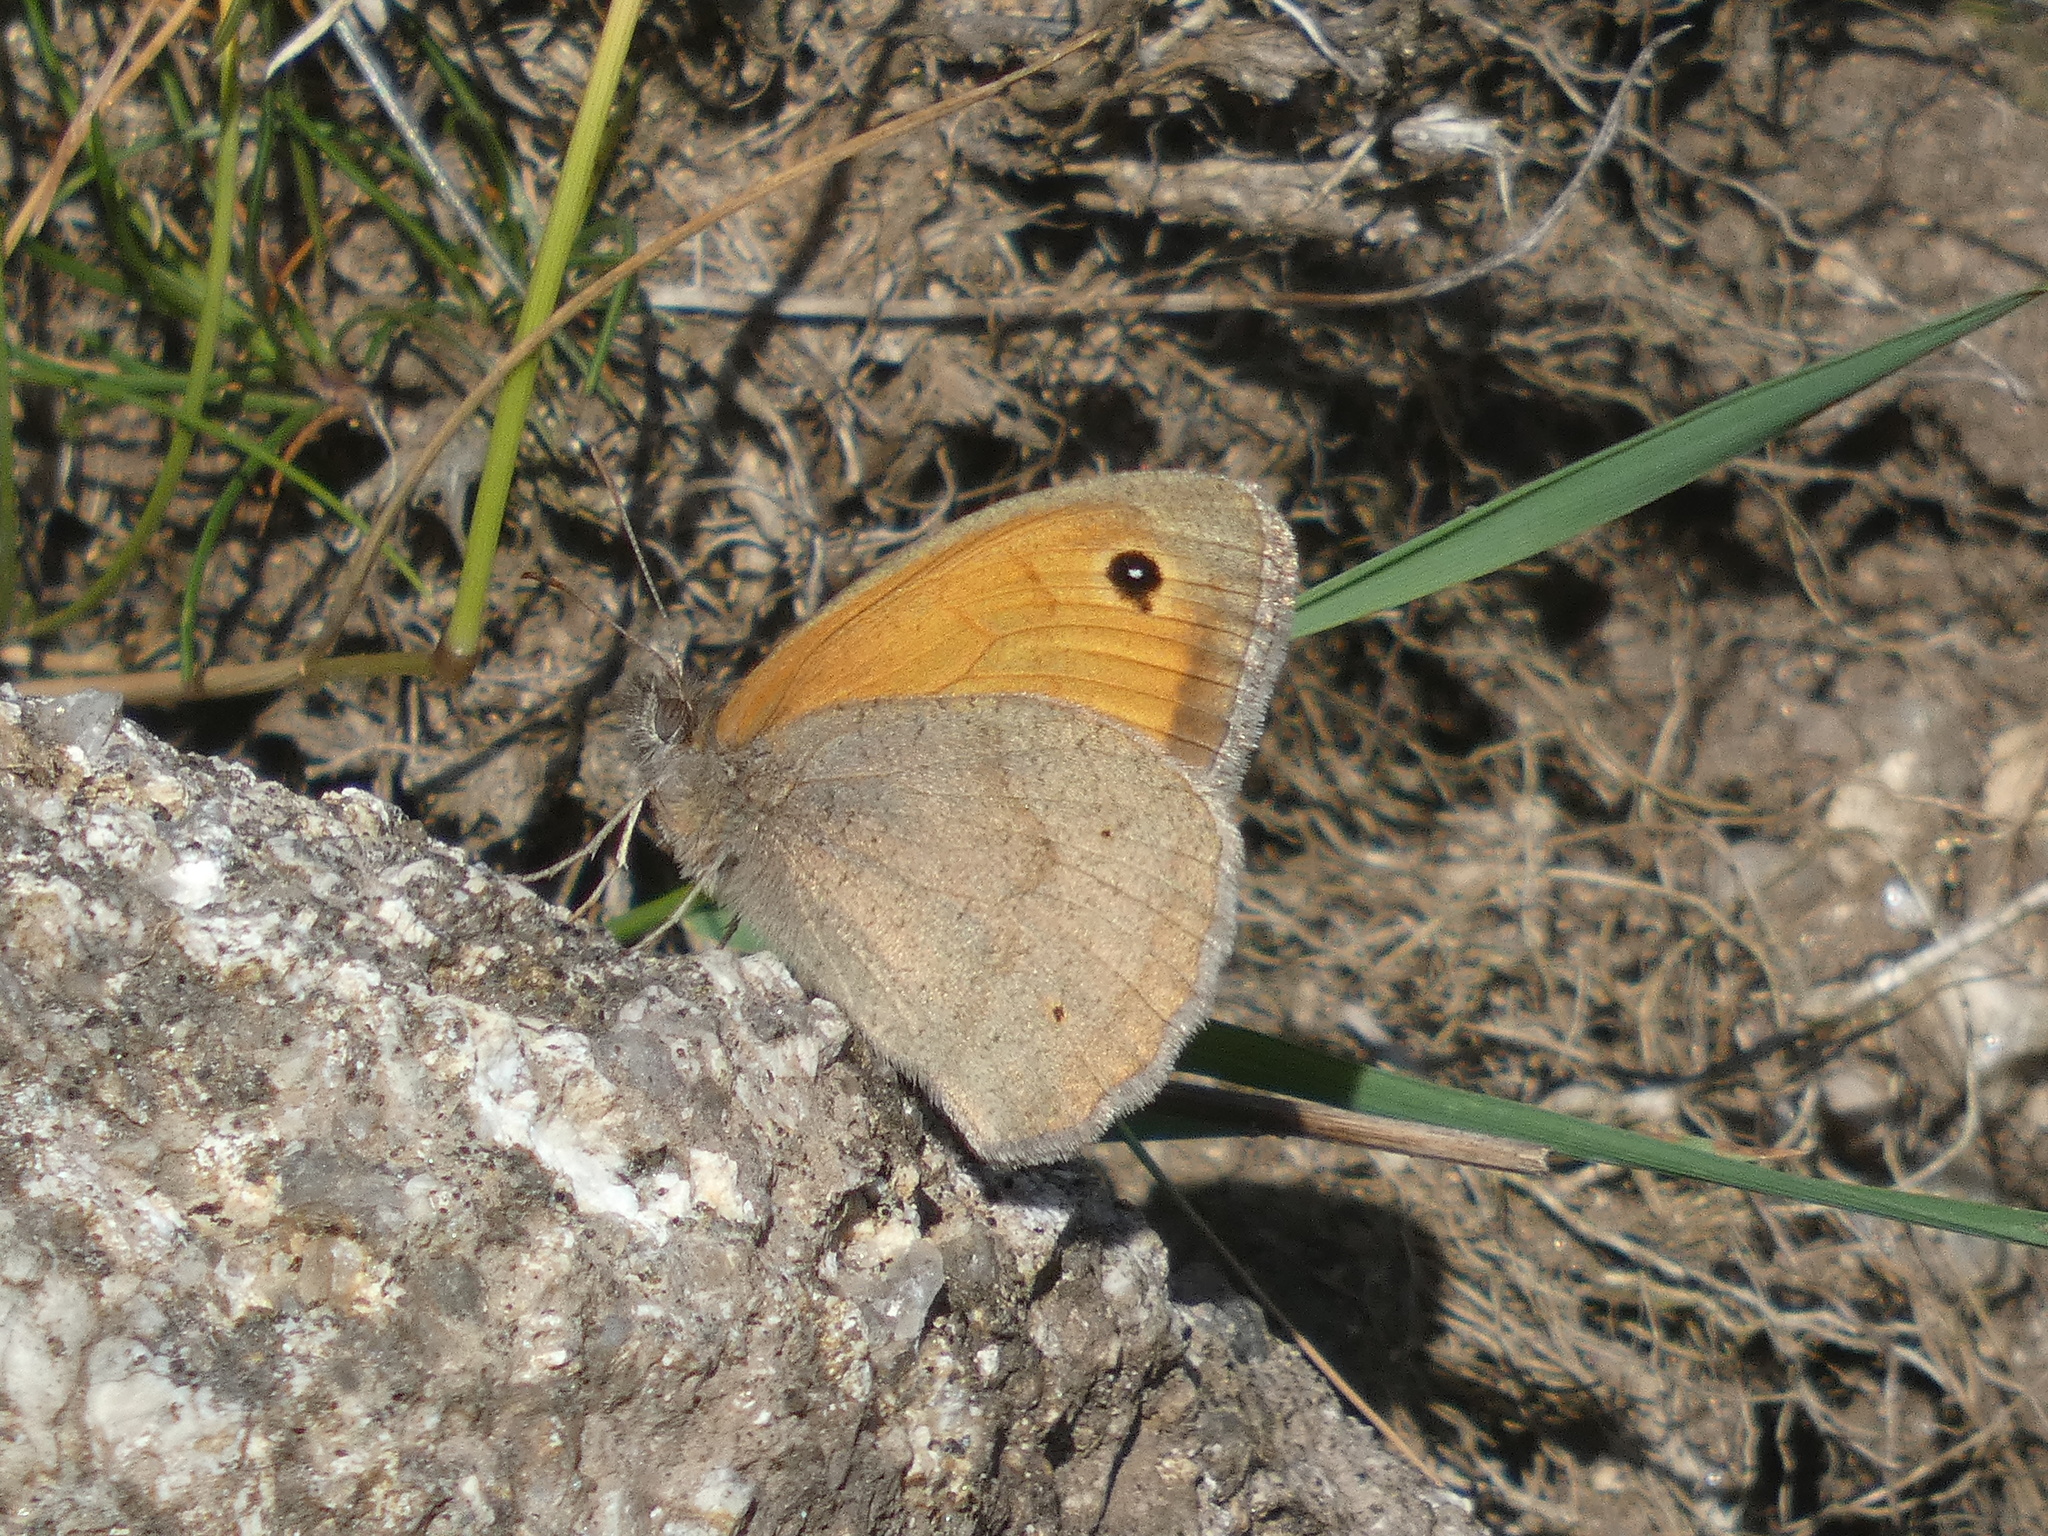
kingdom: Animalia
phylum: Arthropoda
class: Insecta
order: Lepidoptera
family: Nymphalidae
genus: Maniola
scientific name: Maniola jurtina
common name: Meadow brown
